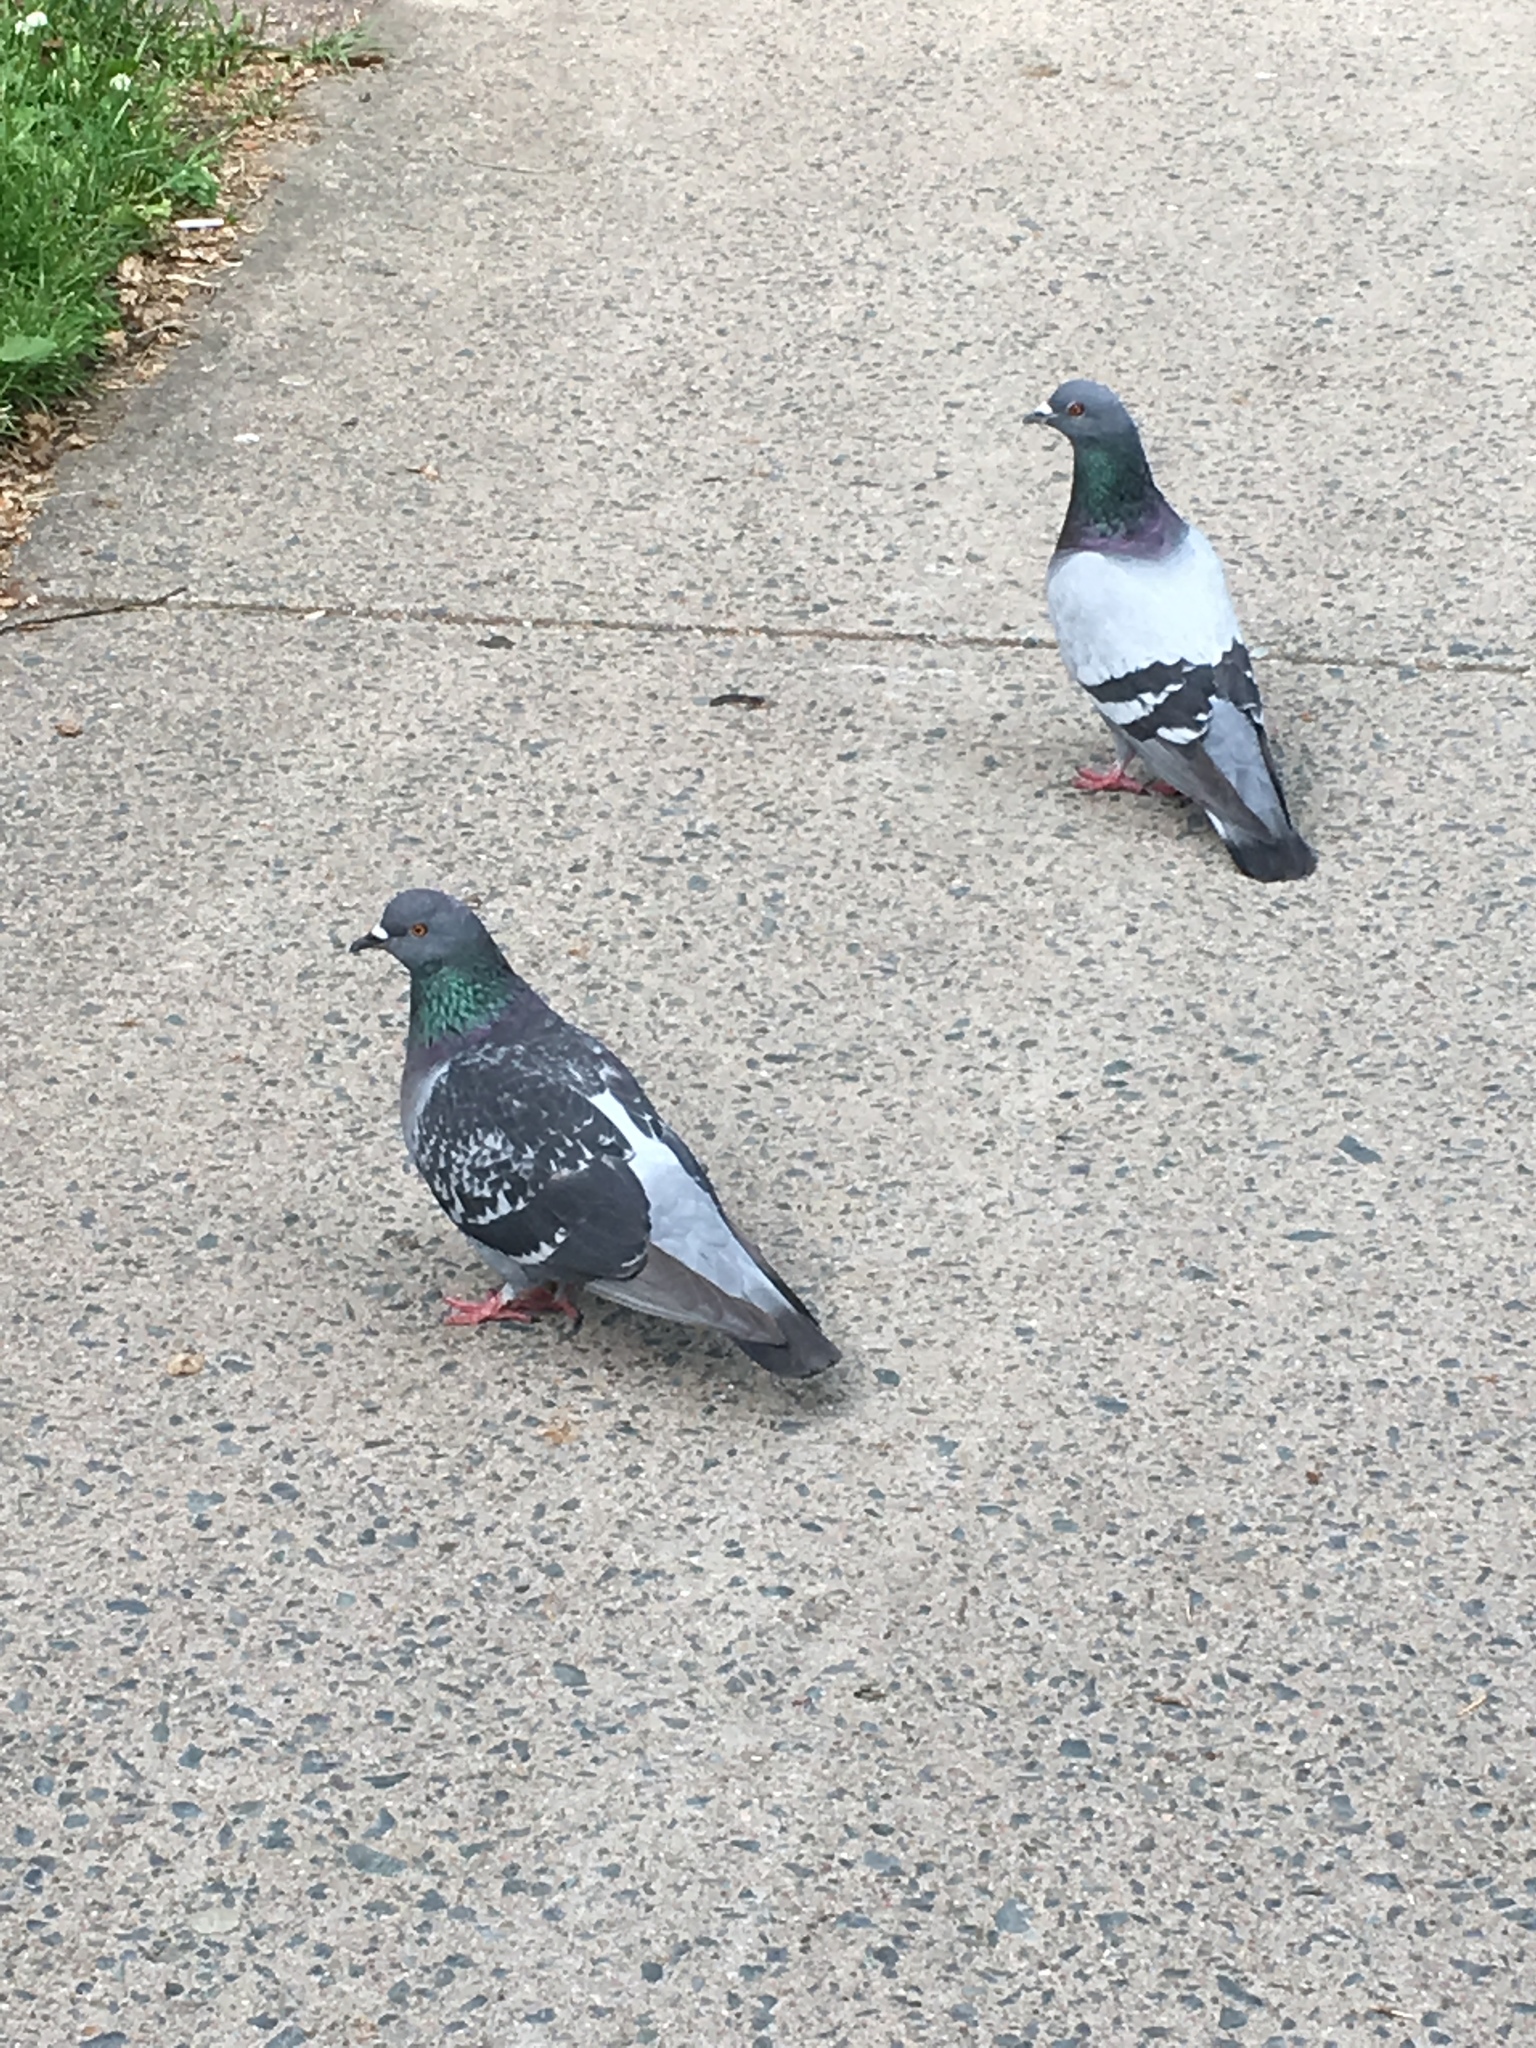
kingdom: Animalia
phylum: Chordata
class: Aves
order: Columbiformes
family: Columbidae
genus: Columba
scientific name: Columba livia
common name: Rock pigeon
